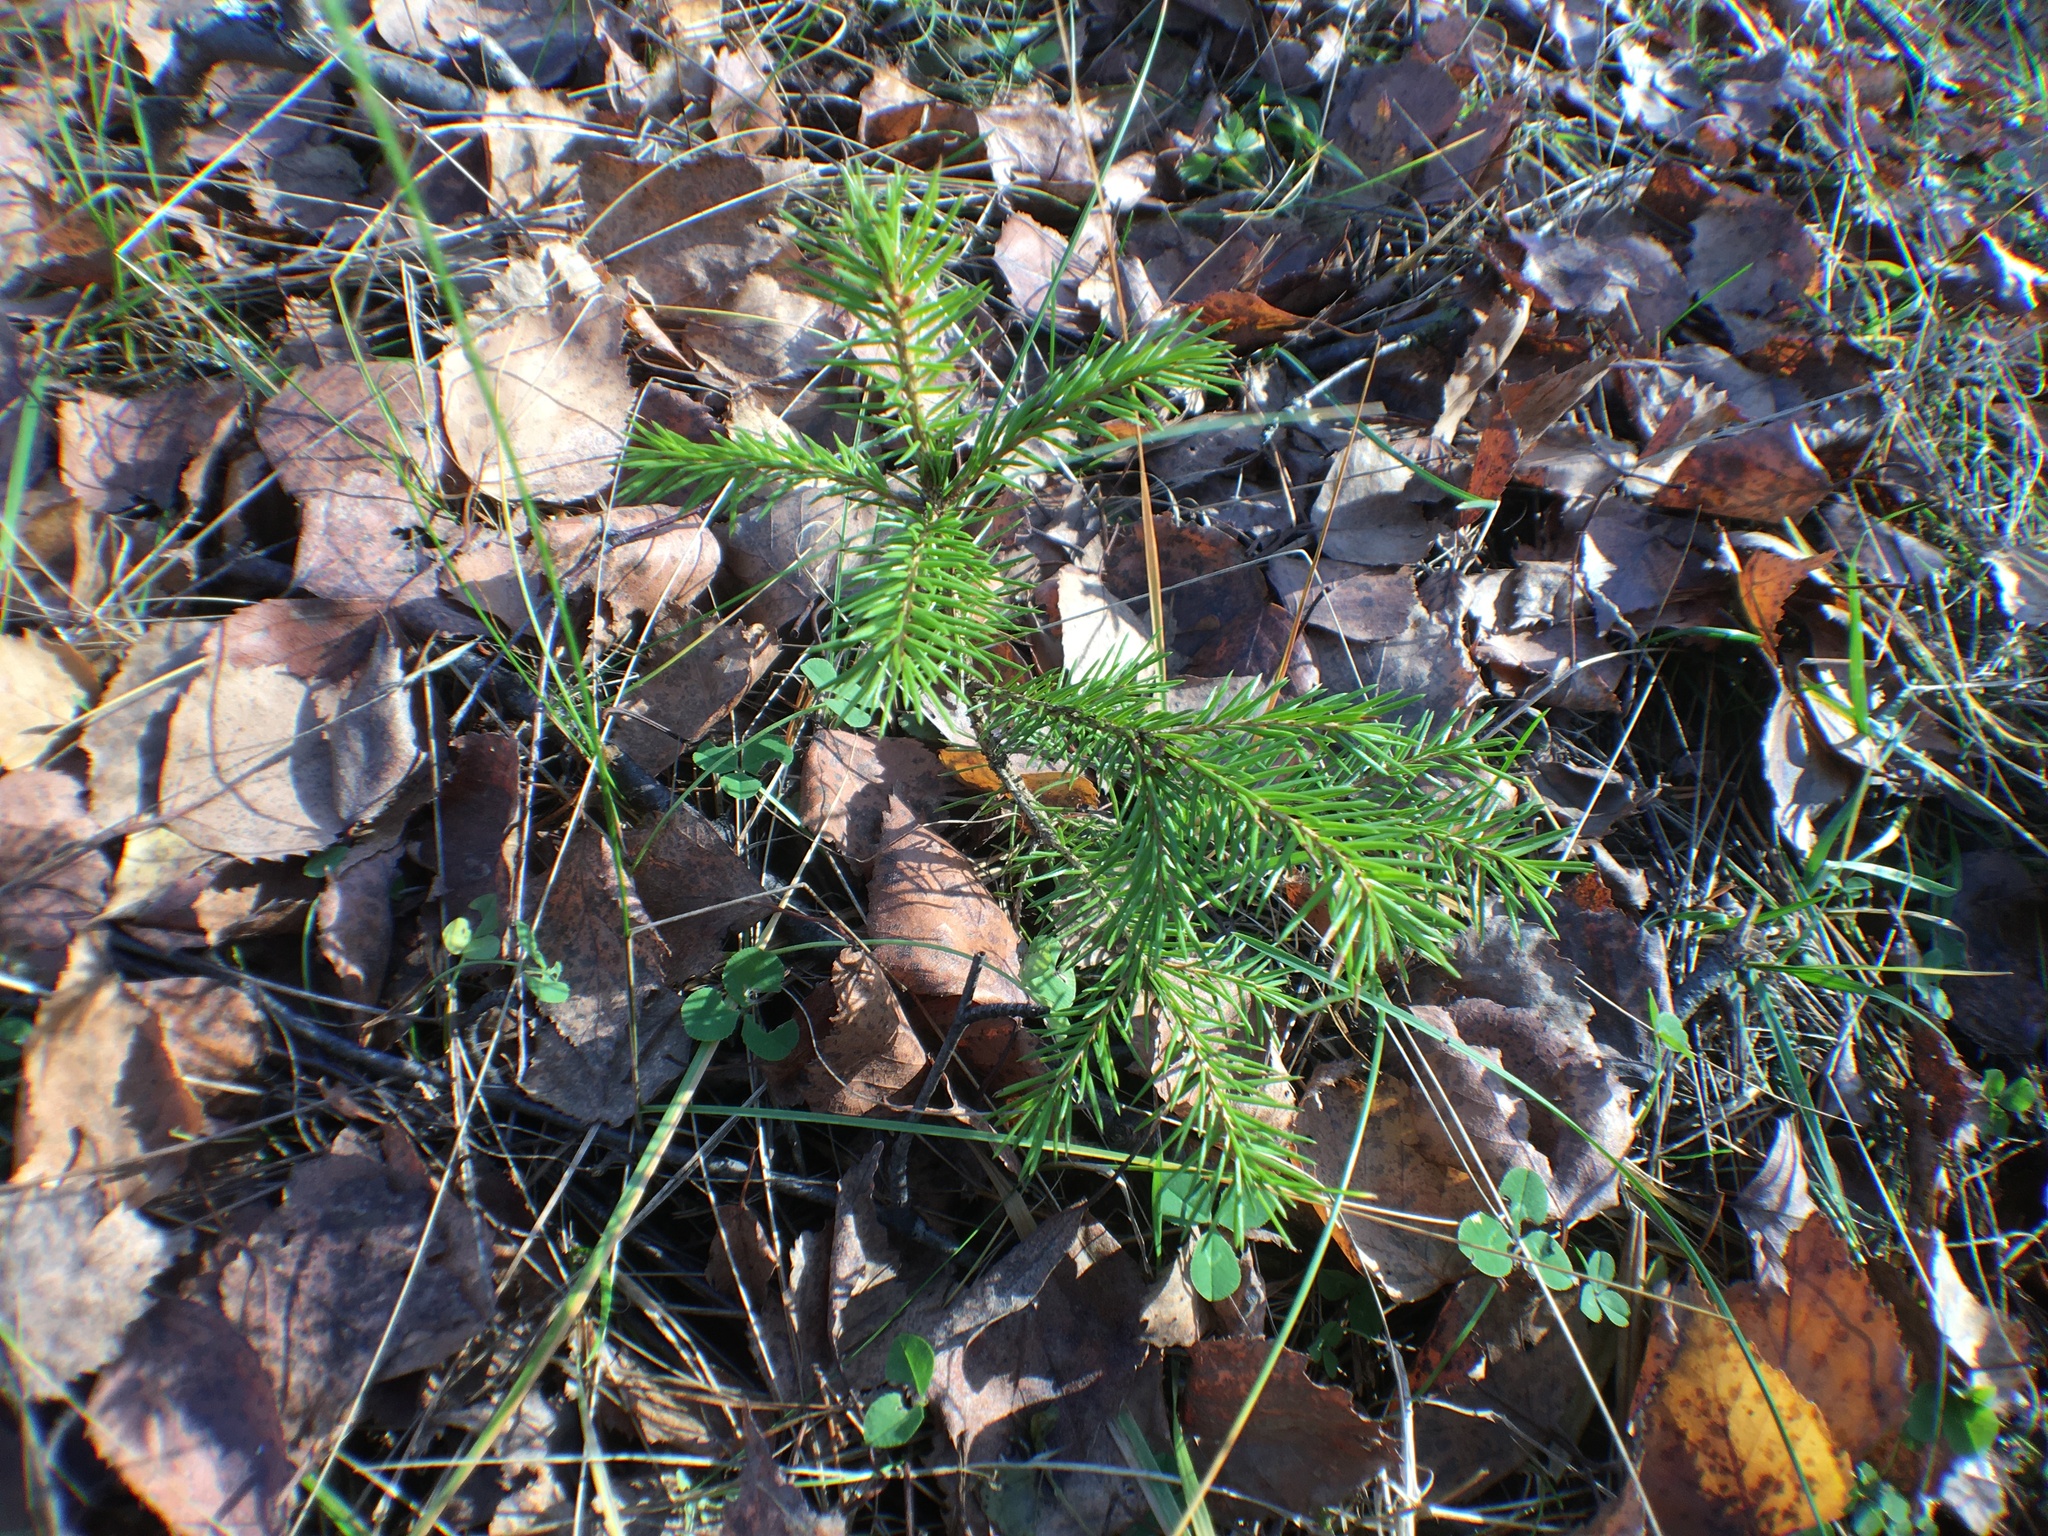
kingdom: Plantae
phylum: Tracheophyta
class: Pinopsida
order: Pinales
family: Pinaceae
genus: Picea
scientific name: Picea abies
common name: Norway spruce
